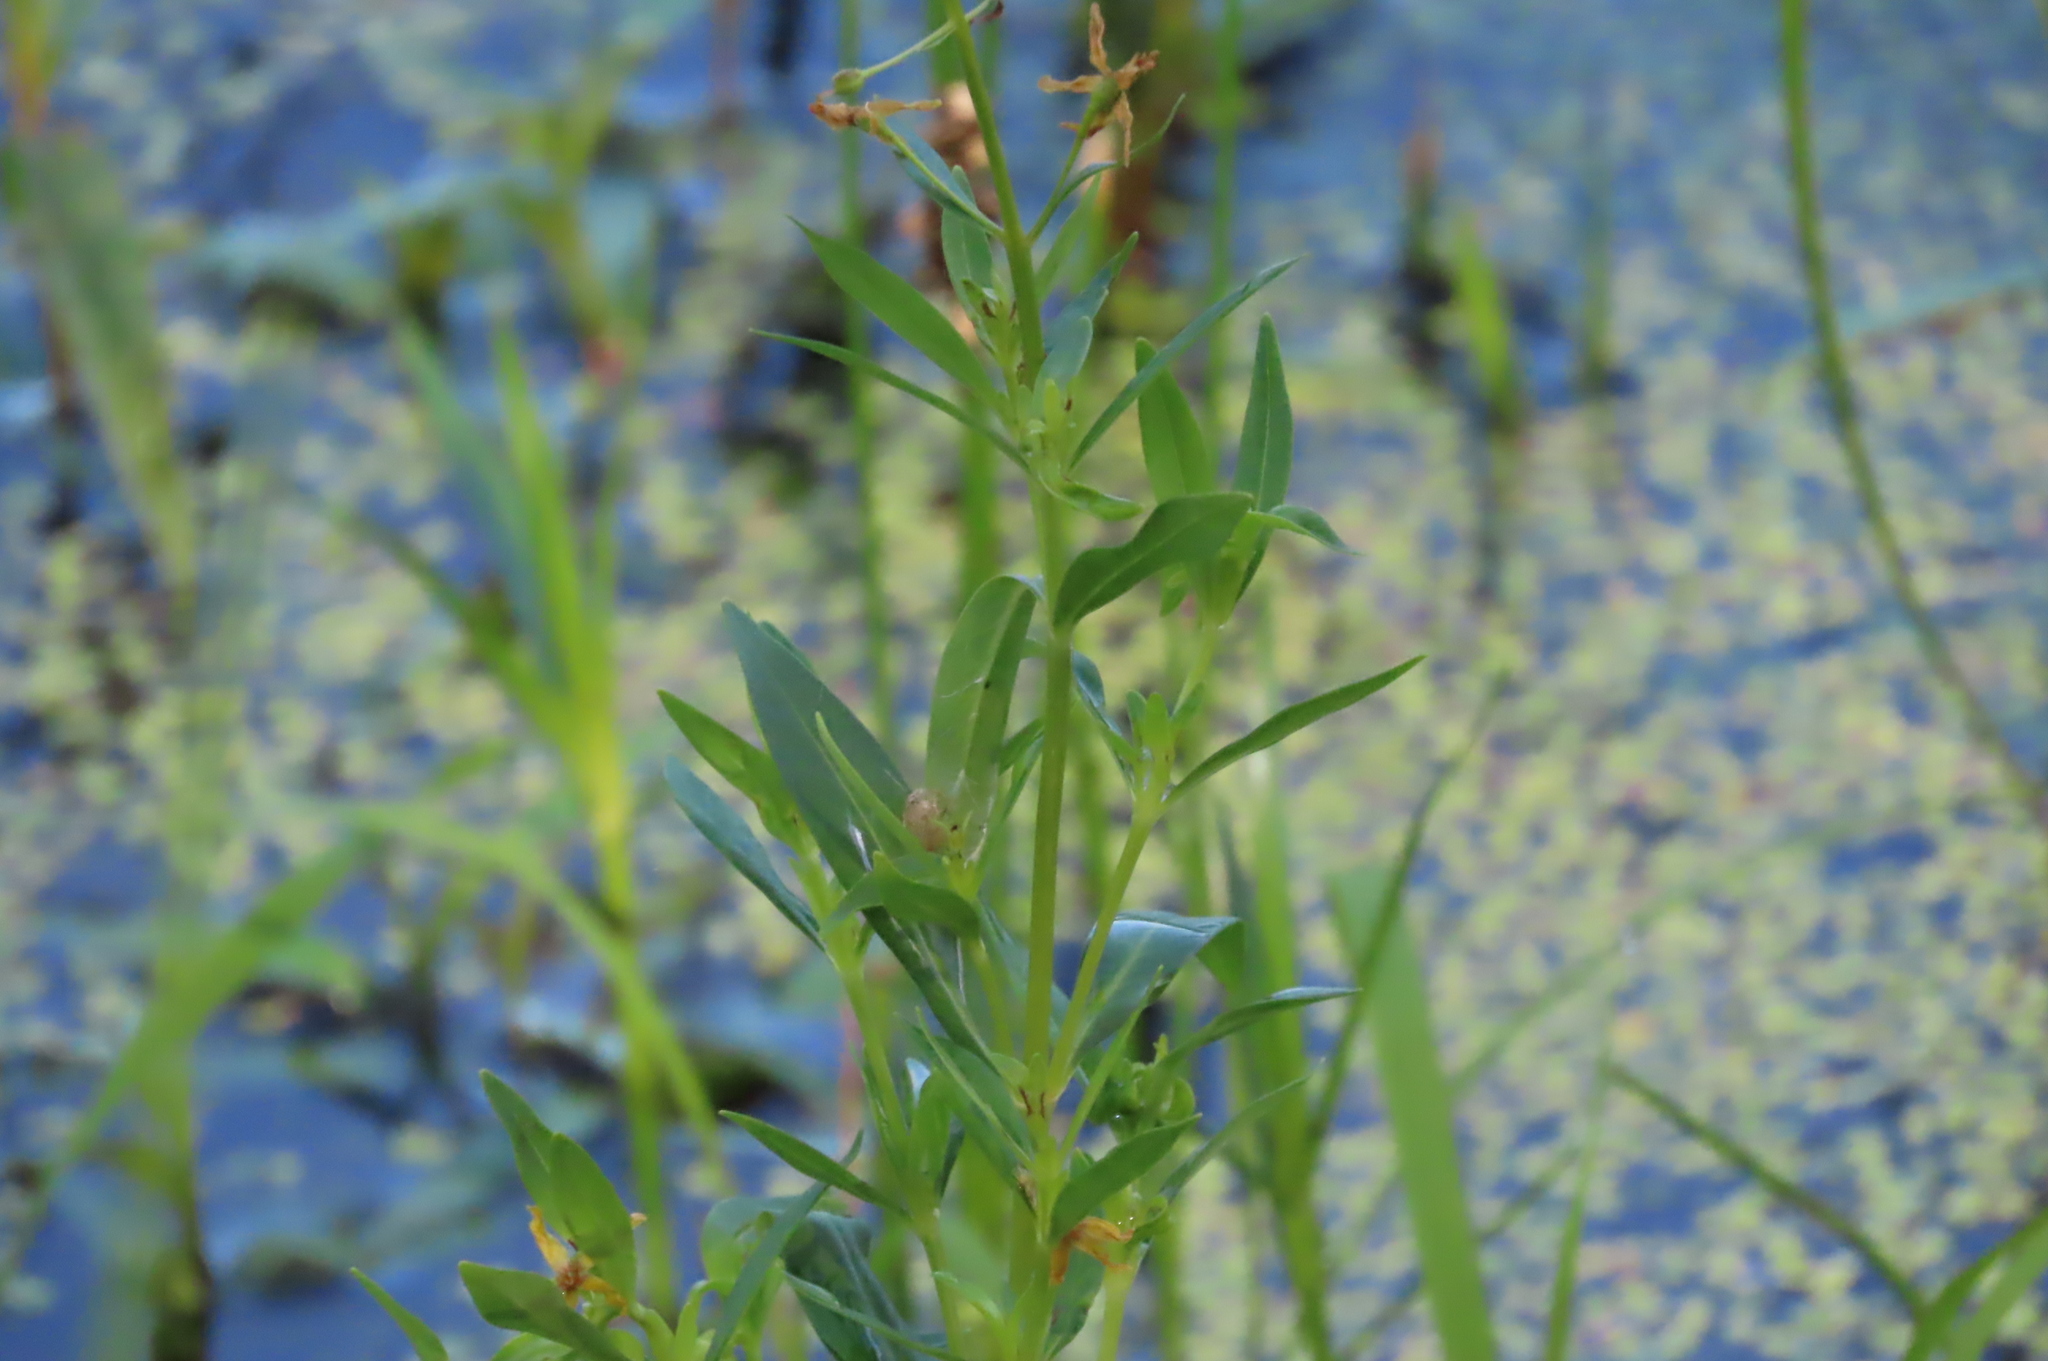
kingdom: Plantae
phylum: Tracheophyta
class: Magnoliopsida
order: Ericales
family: Primulaceae
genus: Lysimachia
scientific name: Lysimachia terrestris
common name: Lake loosestrife
